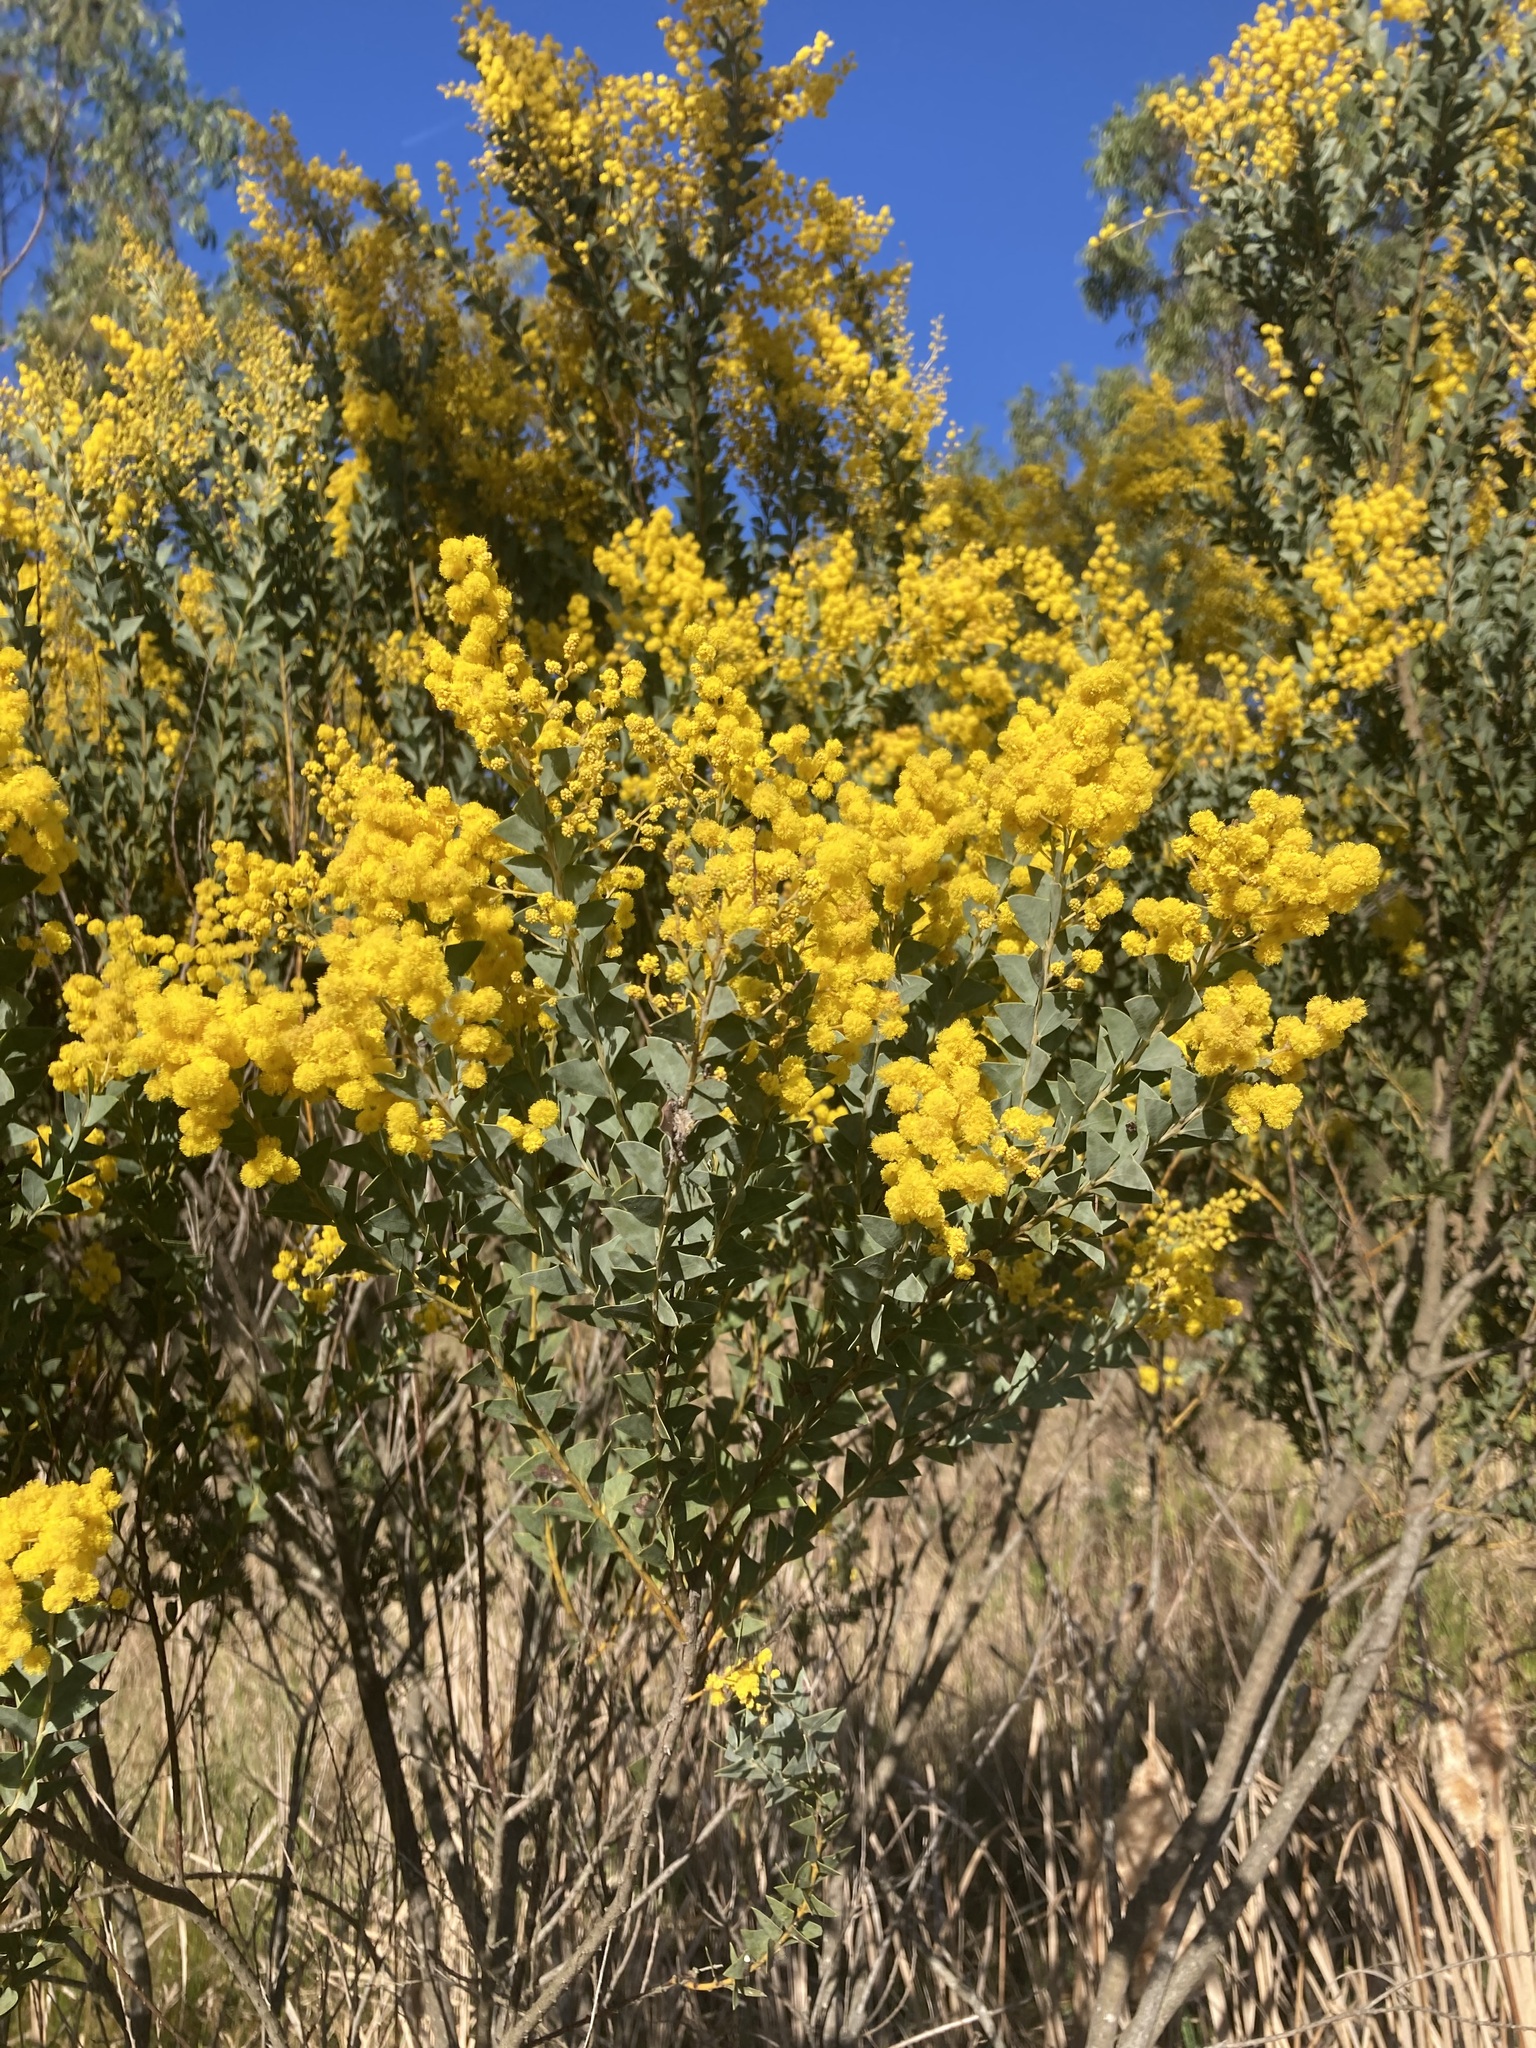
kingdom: Plantae
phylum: Tracheophyta
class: Magnoliopsida
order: Fabales
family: Fabaceae
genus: Acacia
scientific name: Acacia cultriformis
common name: Knife acacia
